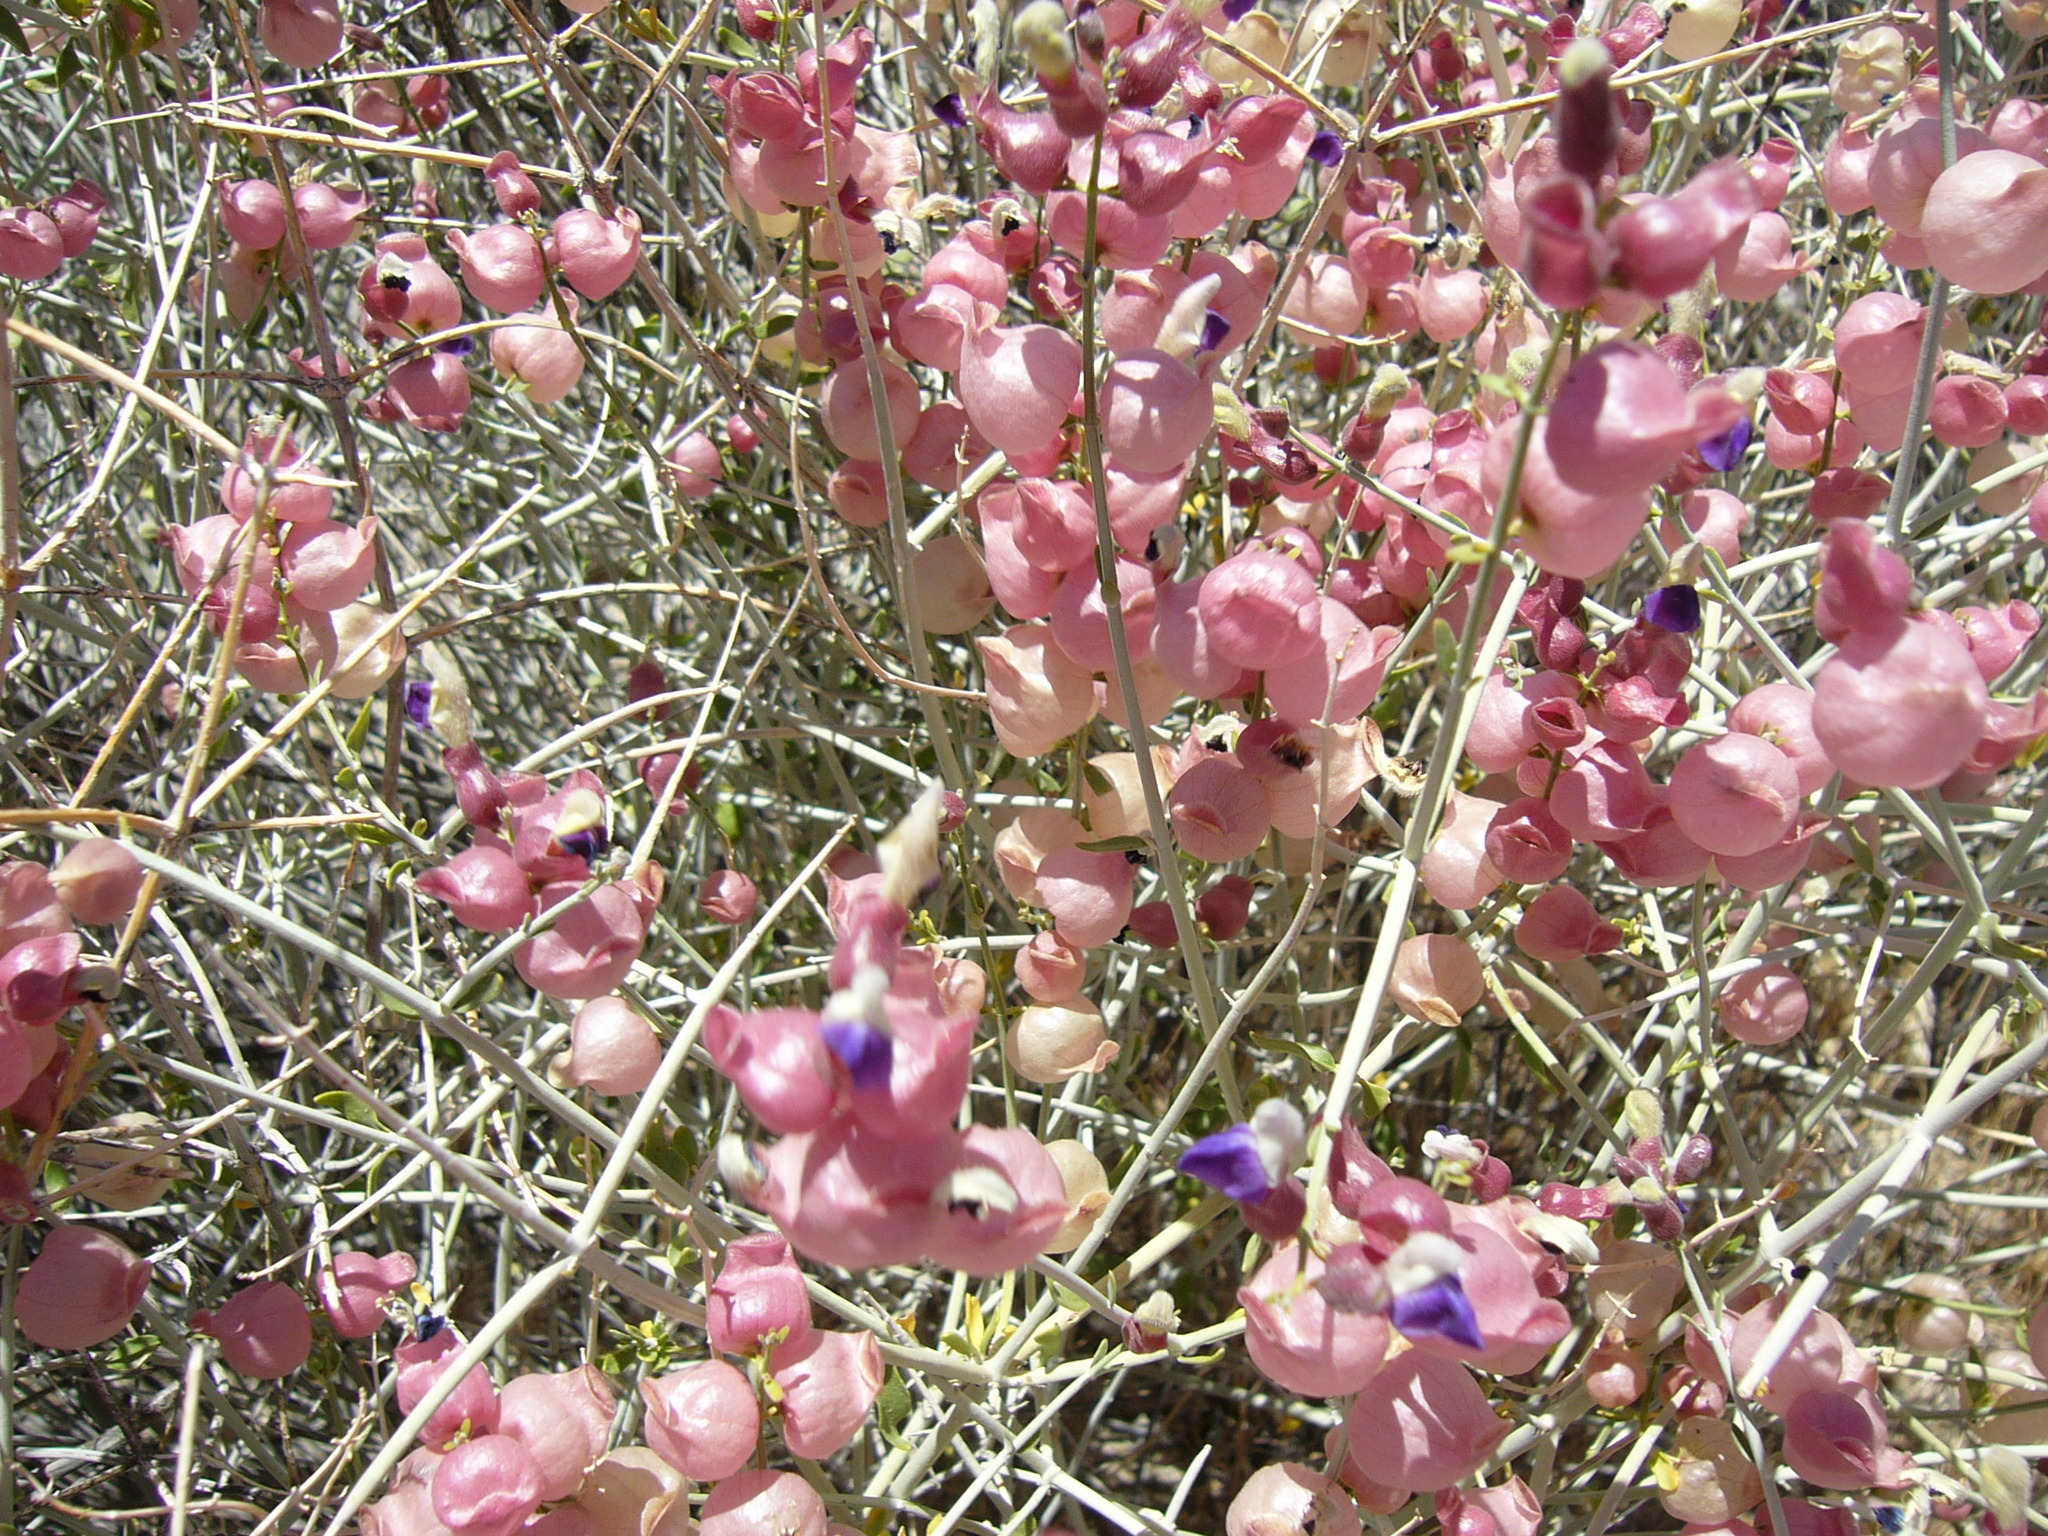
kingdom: Plantae
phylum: Tracheophyta
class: Magnoliopsida
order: Lamiales
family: Lamiaceae
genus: Scutellaria
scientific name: Scutellaria mexicana
